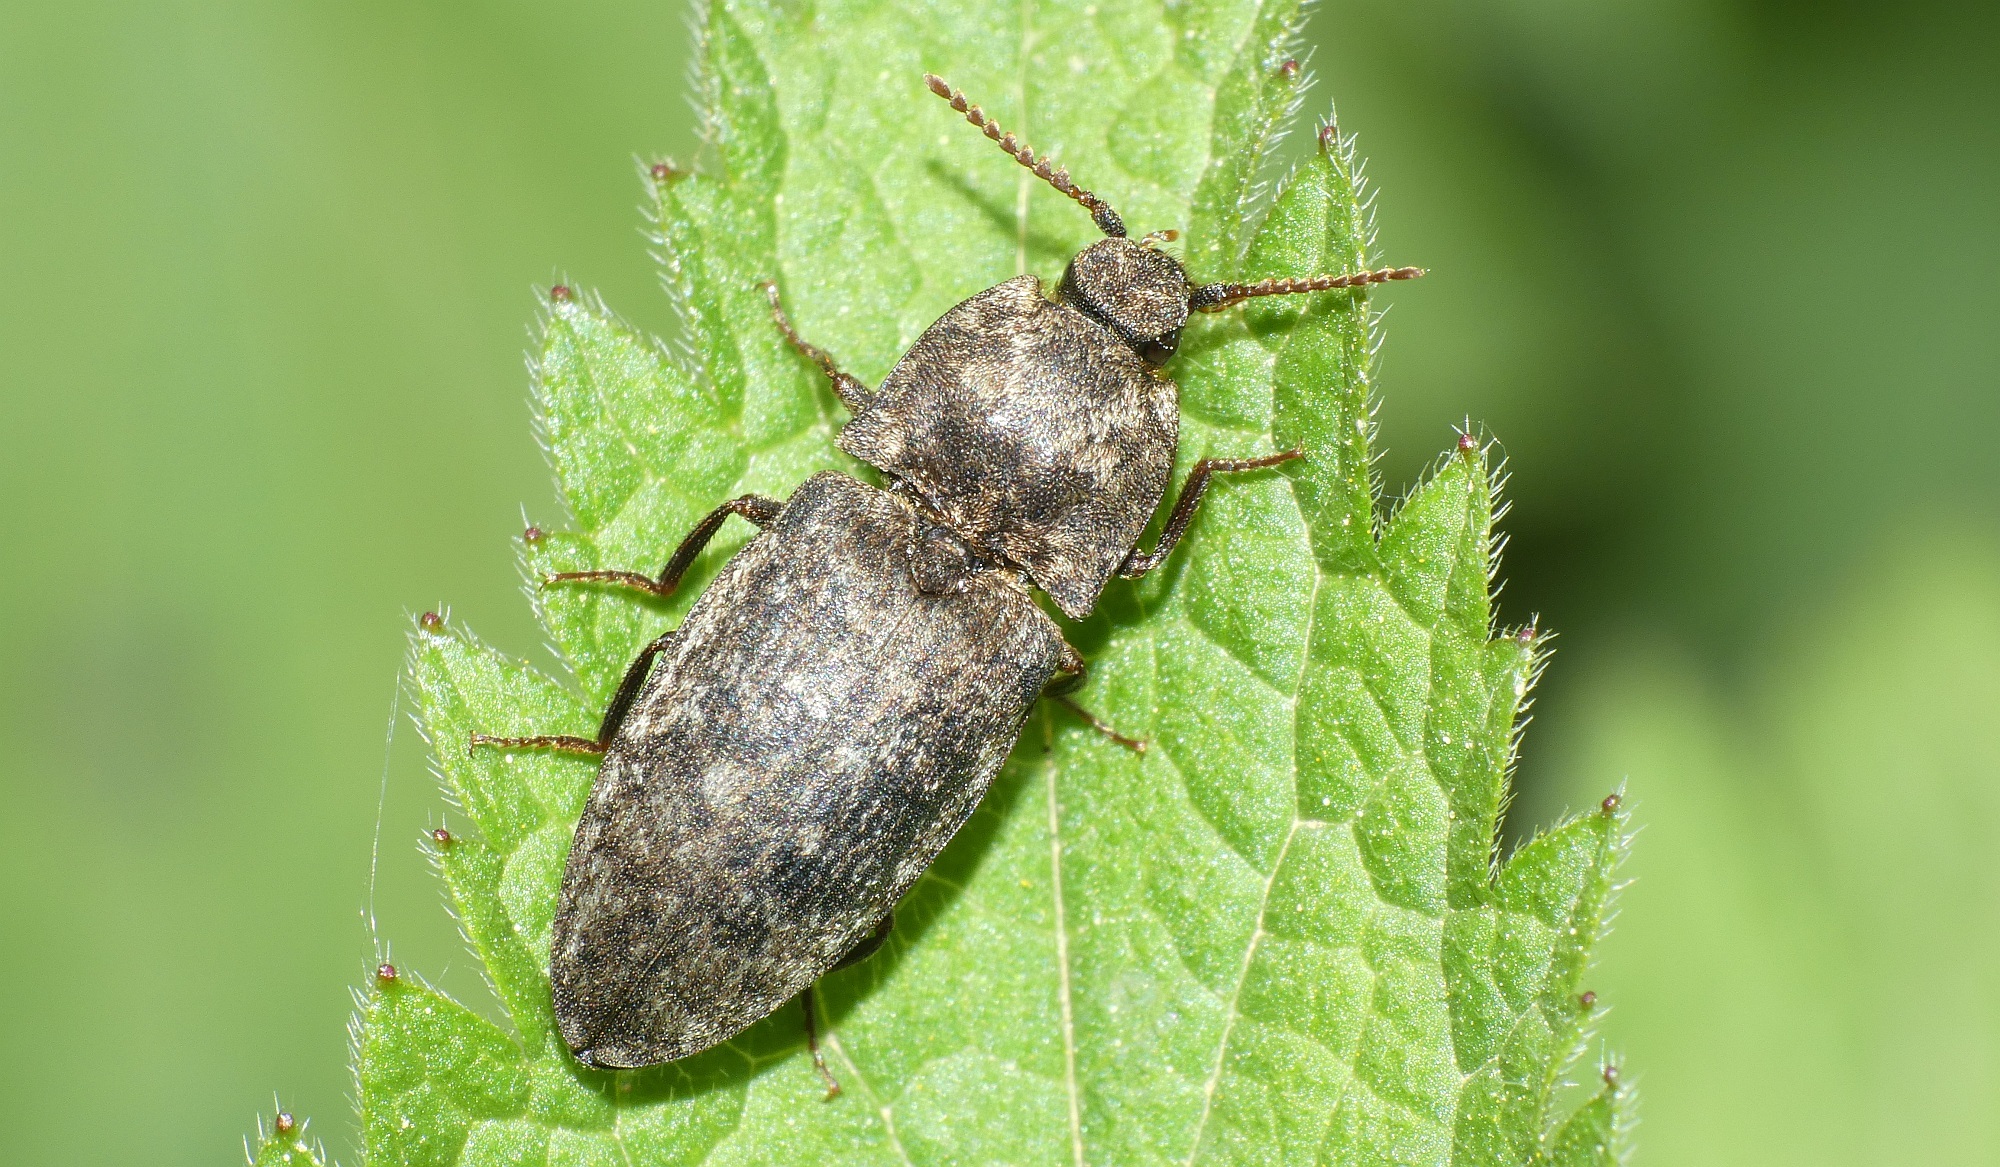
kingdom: Animalia
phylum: Arthropoda
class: Insecta
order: Coleoptera
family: Elateridae
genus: Agrypnus
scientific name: Agrypnus murinus
